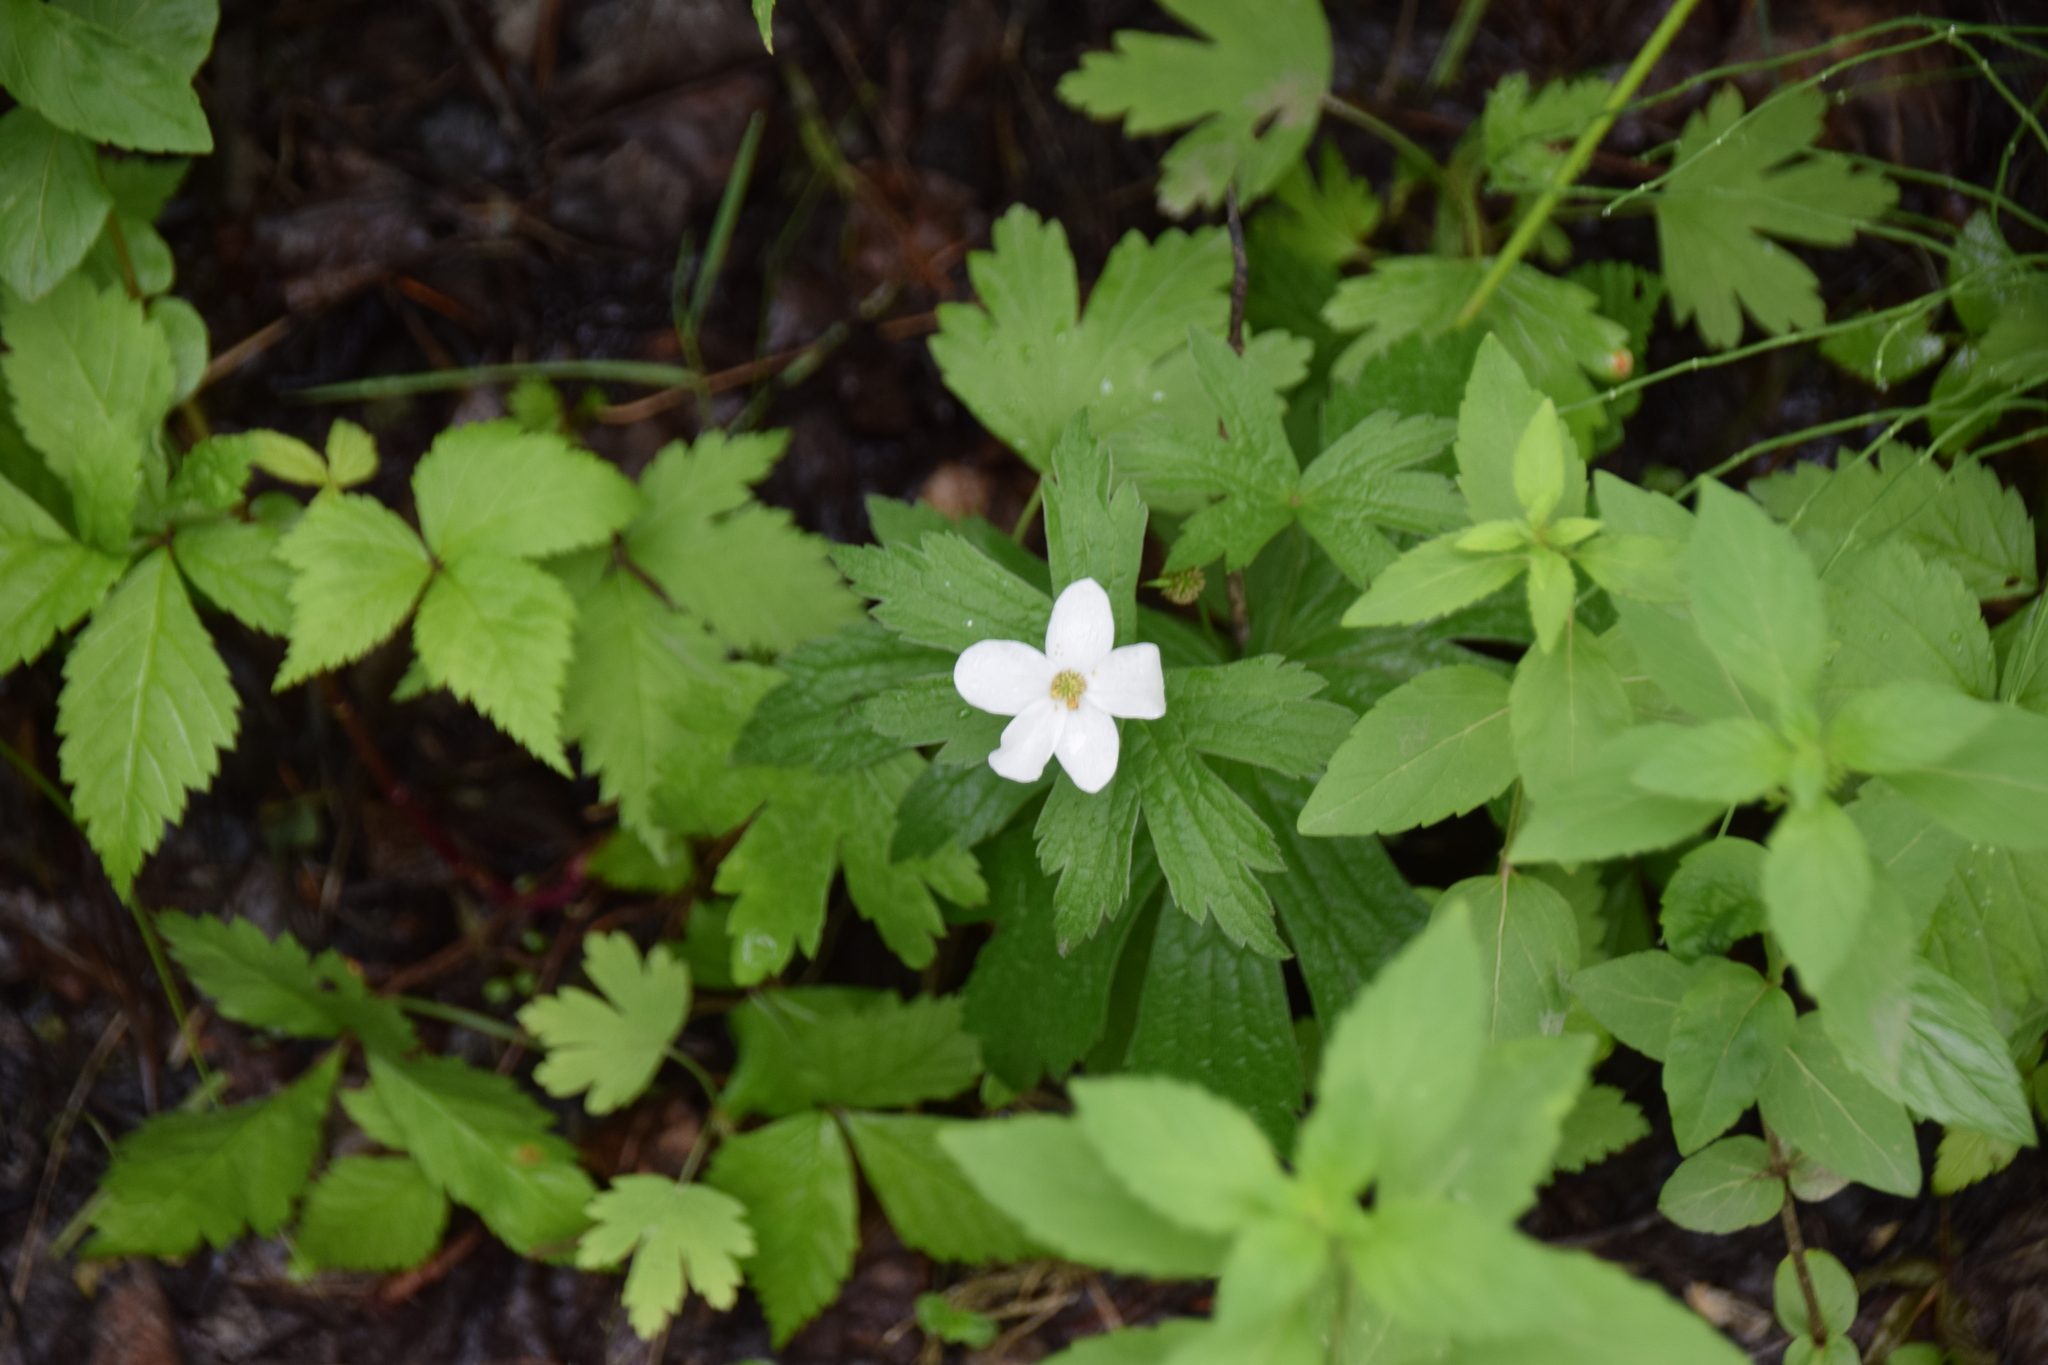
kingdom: Plantae
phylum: Tracheophyta
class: Magnoliopsida
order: Ranunculales
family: Ranunculaceae
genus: Anemonastrum
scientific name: Anemonastrum canadense
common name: Canada anemone
